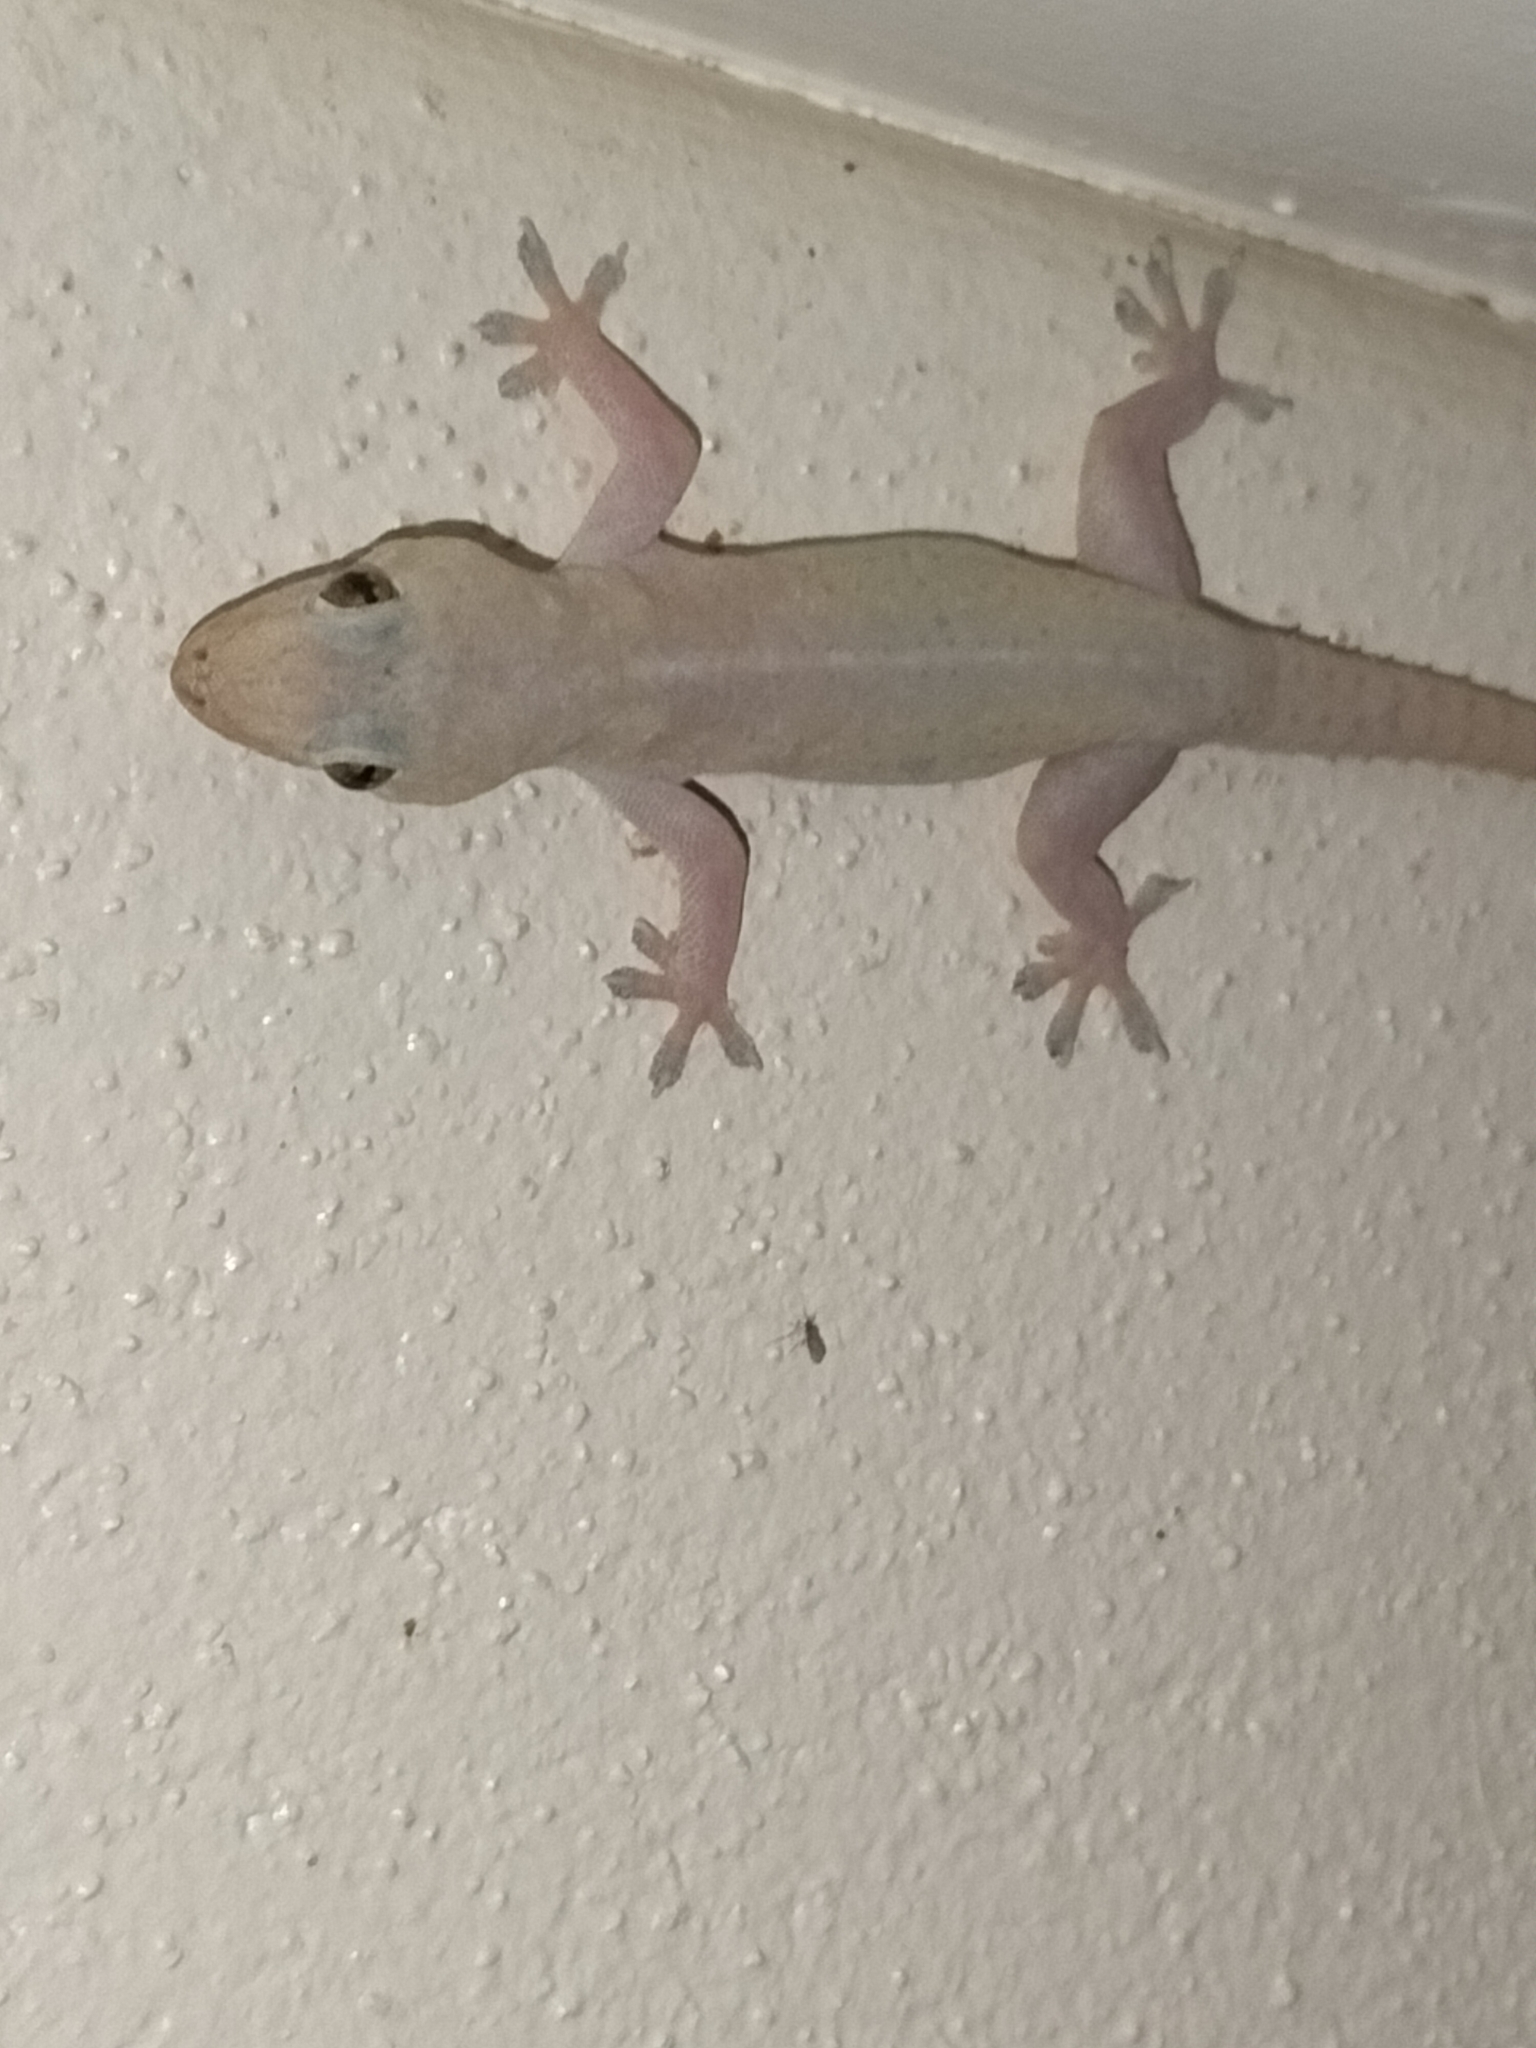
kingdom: Animalia
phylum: Chordata
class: Squamata
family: Gekkonidae
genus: Hemidactylus
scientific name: Hemidactylus frenatus
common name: Common house gecko
